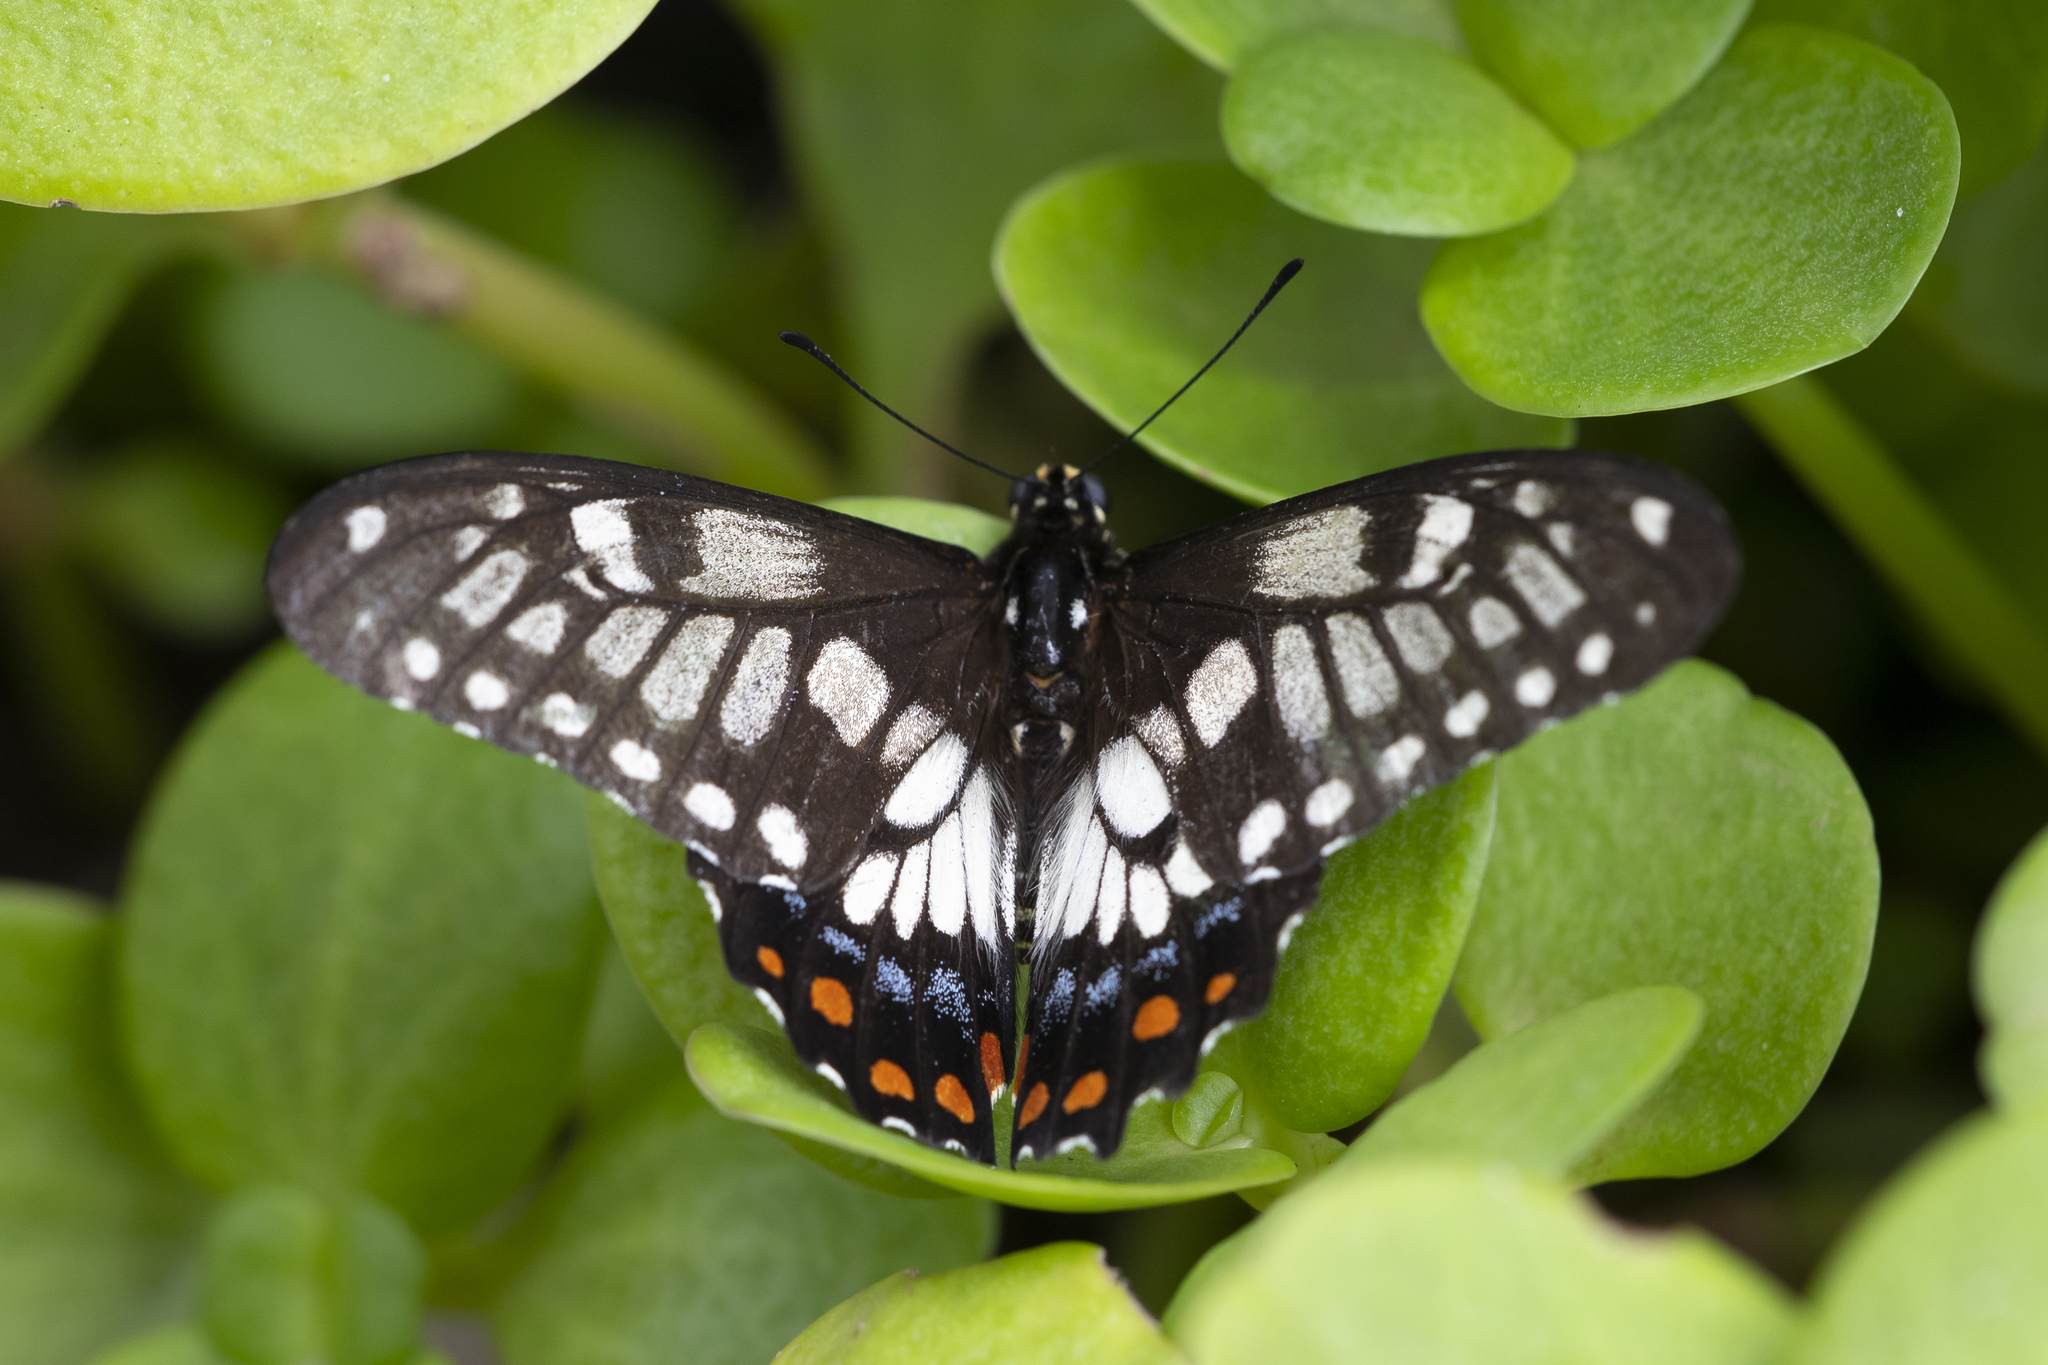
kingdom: Animalia
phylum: Arthropoda
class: Insecta
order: Lepidoptera
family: Papilionidae
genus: Papilio
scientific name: Papilio anactus
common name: Dingy swallowtail
